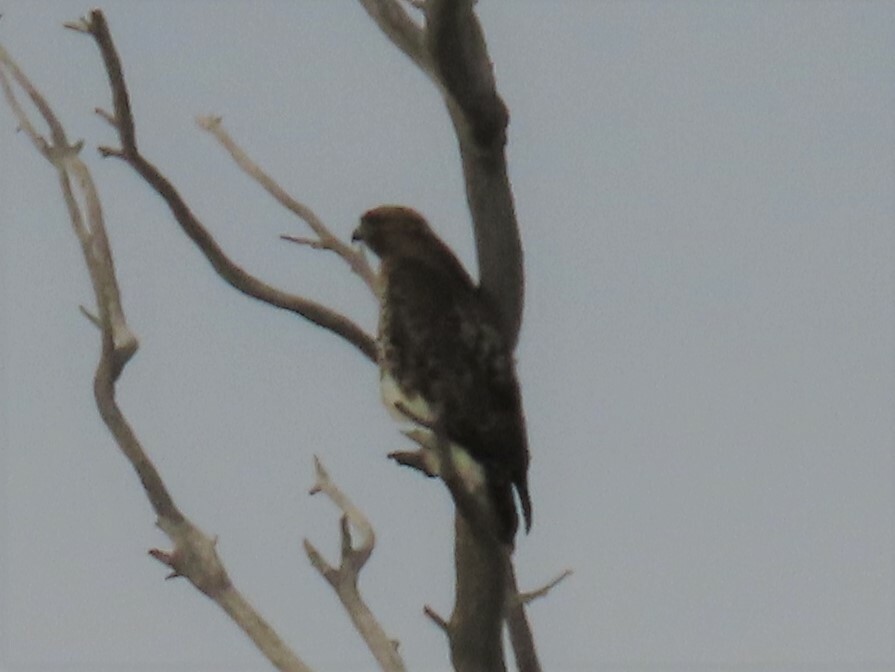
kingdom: Animalia
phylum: Chordata
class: Aves
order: Accipitriformes
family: Accipitridae
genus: Buteo
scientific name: Buteo jamaicensis
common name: Red-tailed hawk
